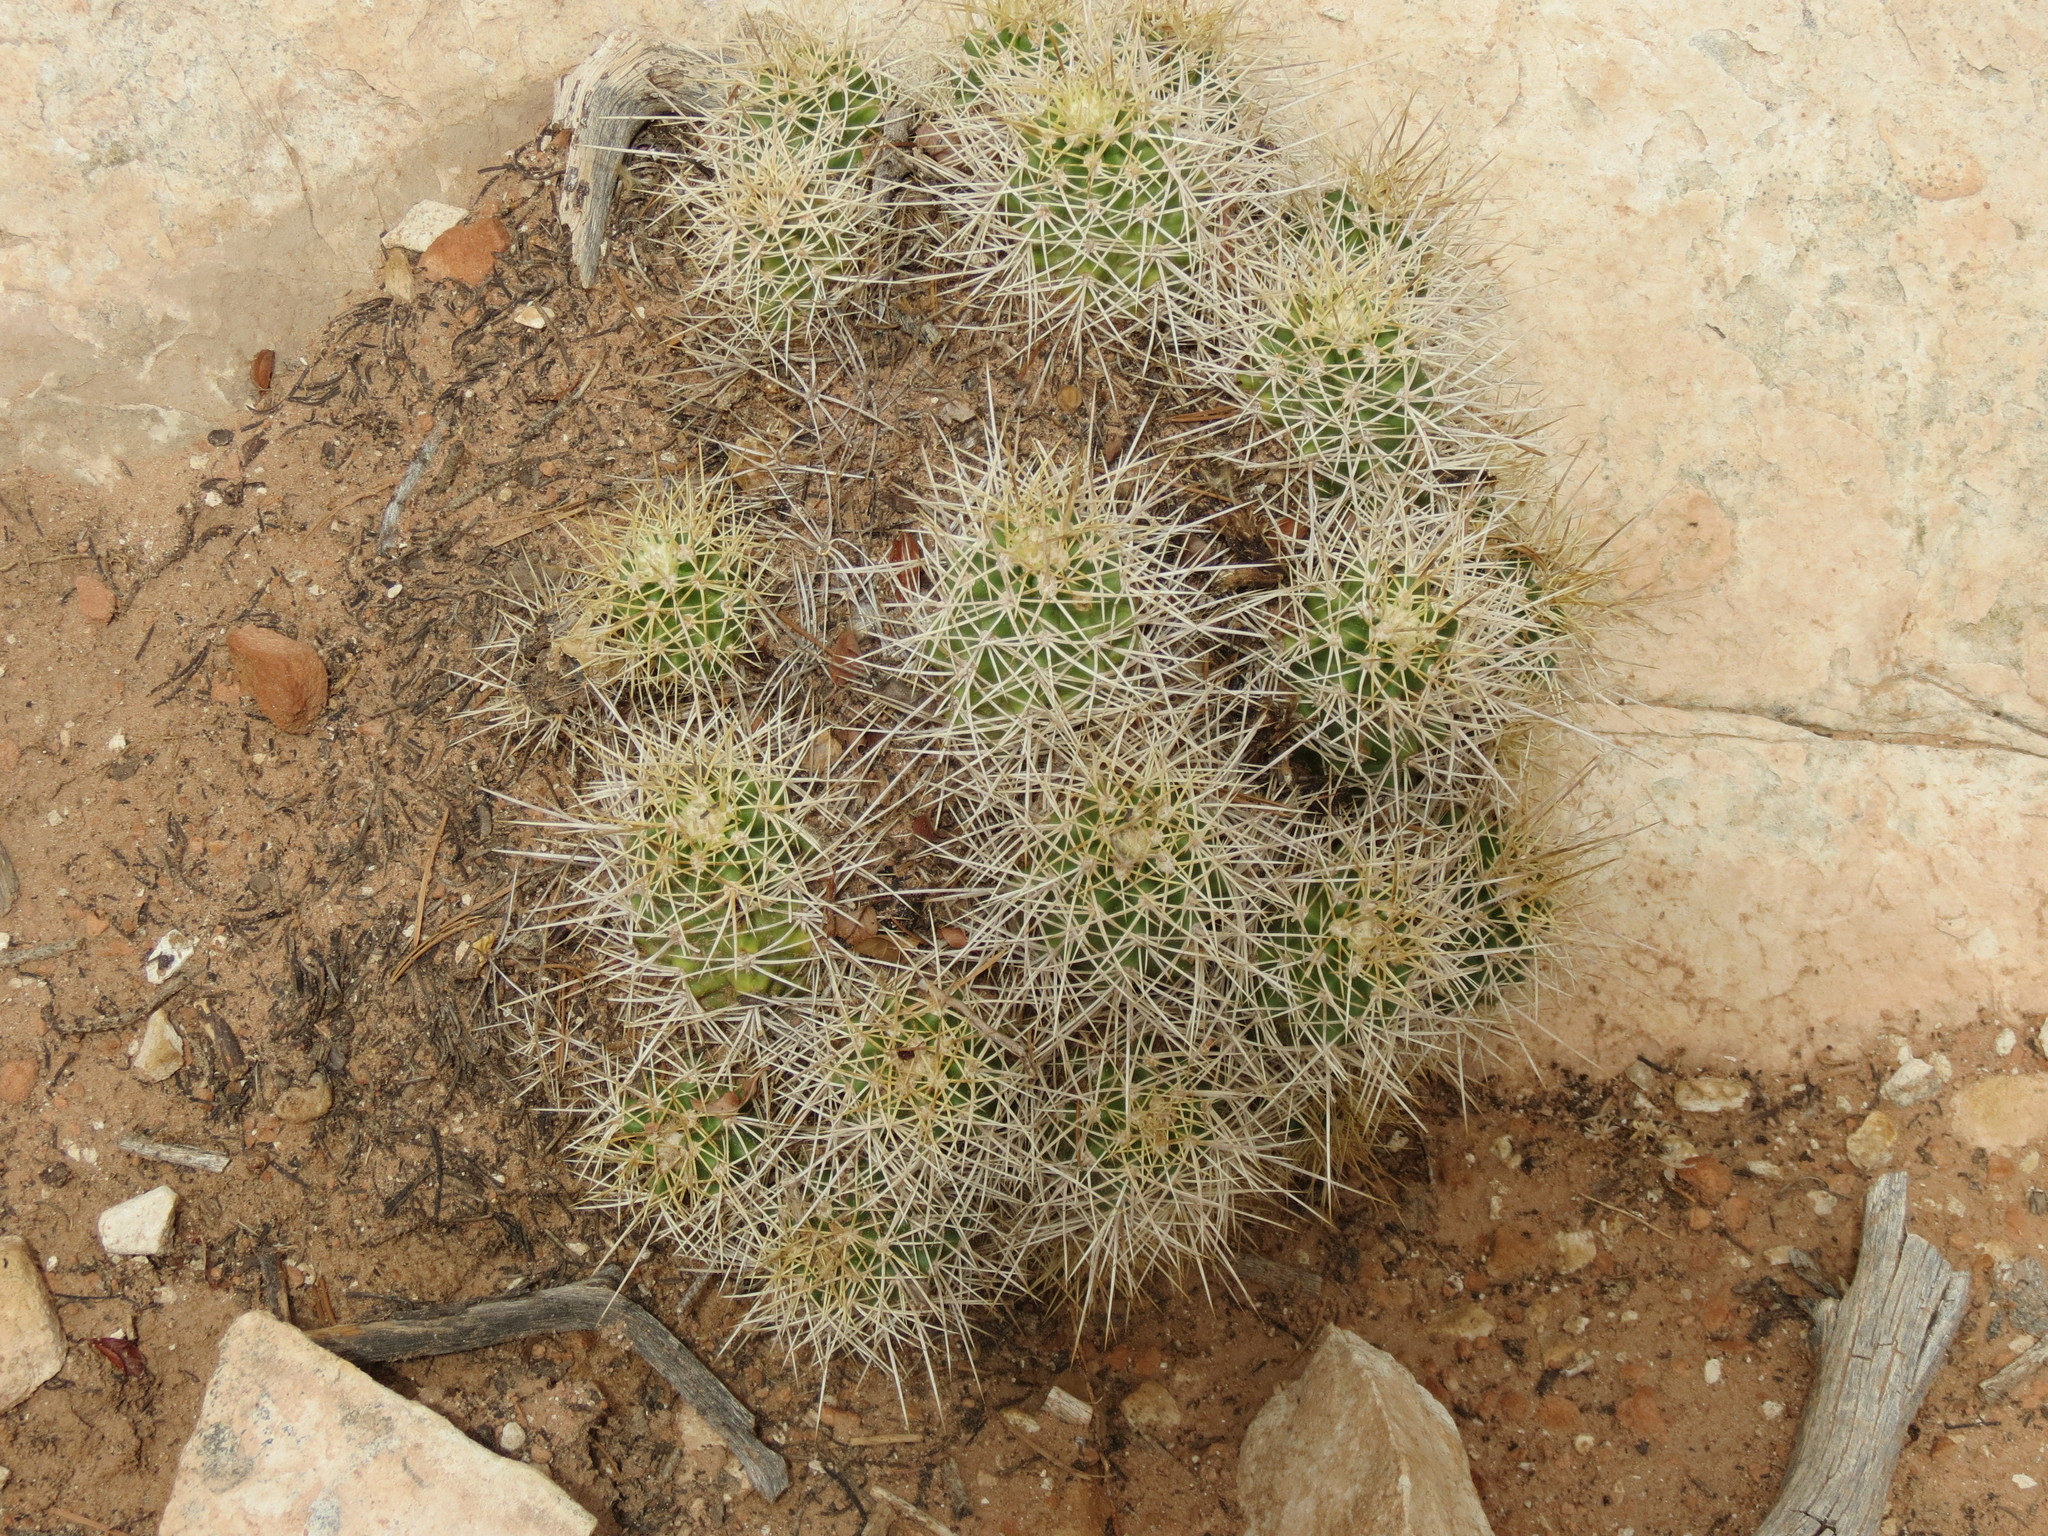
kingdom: Plantae
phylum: Tracheophyta
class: Magnoliopsida
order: Caryophyllales
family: Cactaceae
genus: Echinocereus
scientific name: Echinocereus triglochidiatus
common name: Claretcup hedgehog
